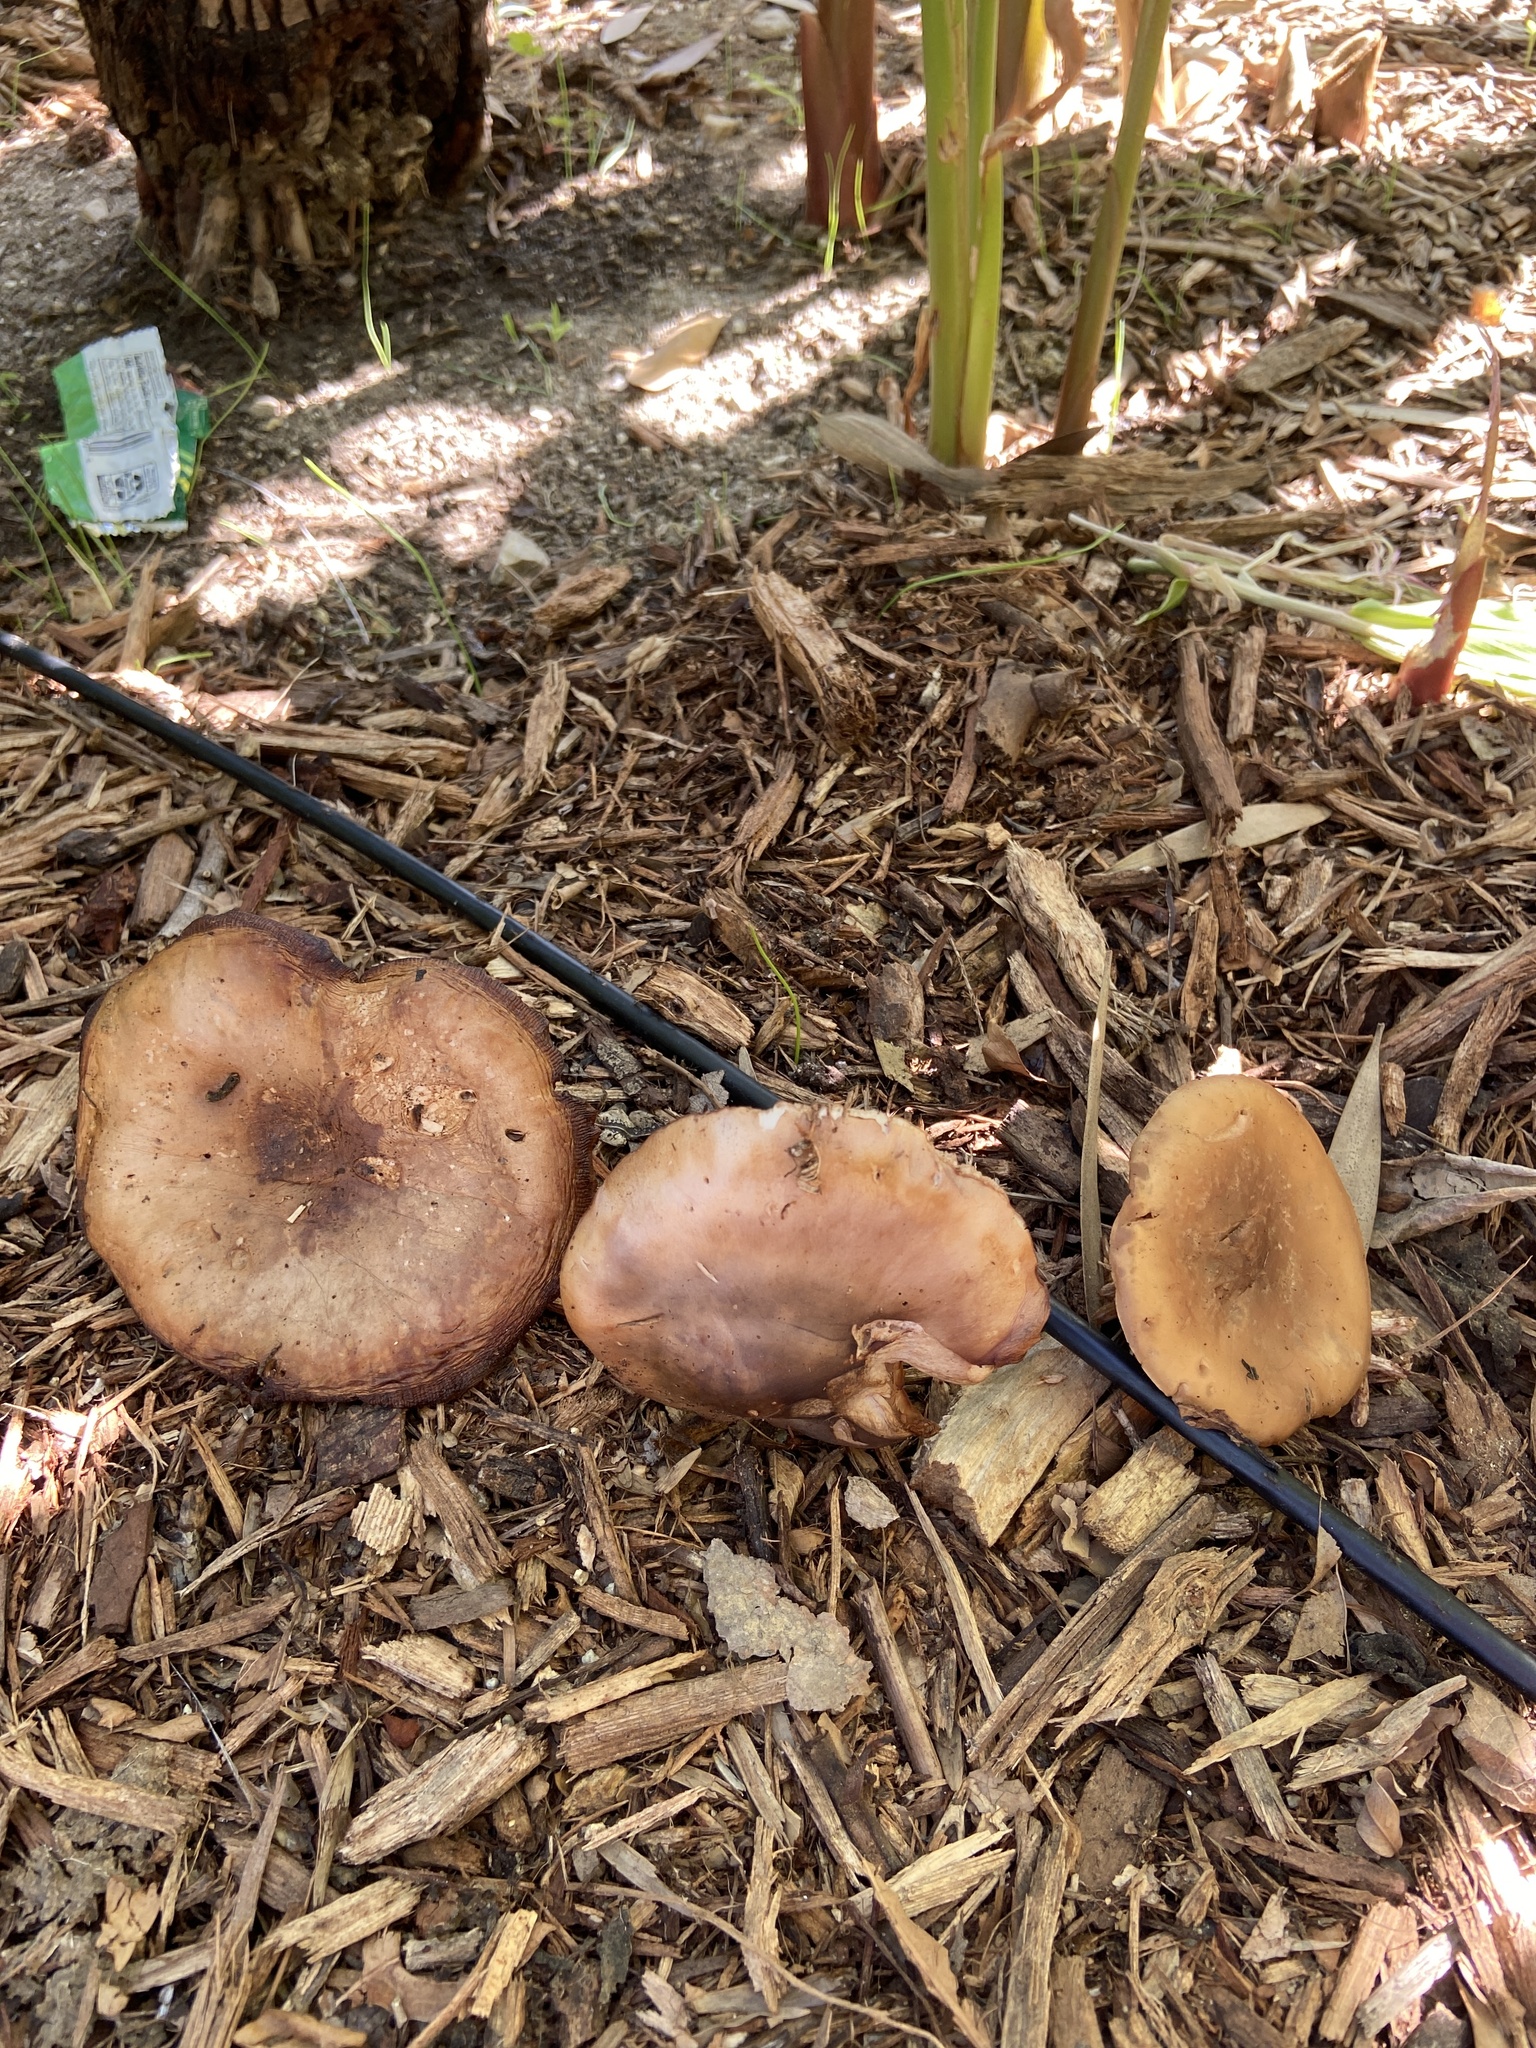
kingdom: Fungi
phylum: Basidiomycota
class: Agaricomycetes
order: Agaricales
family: Tricholomataceae
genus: Collybia
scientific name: Collybia
